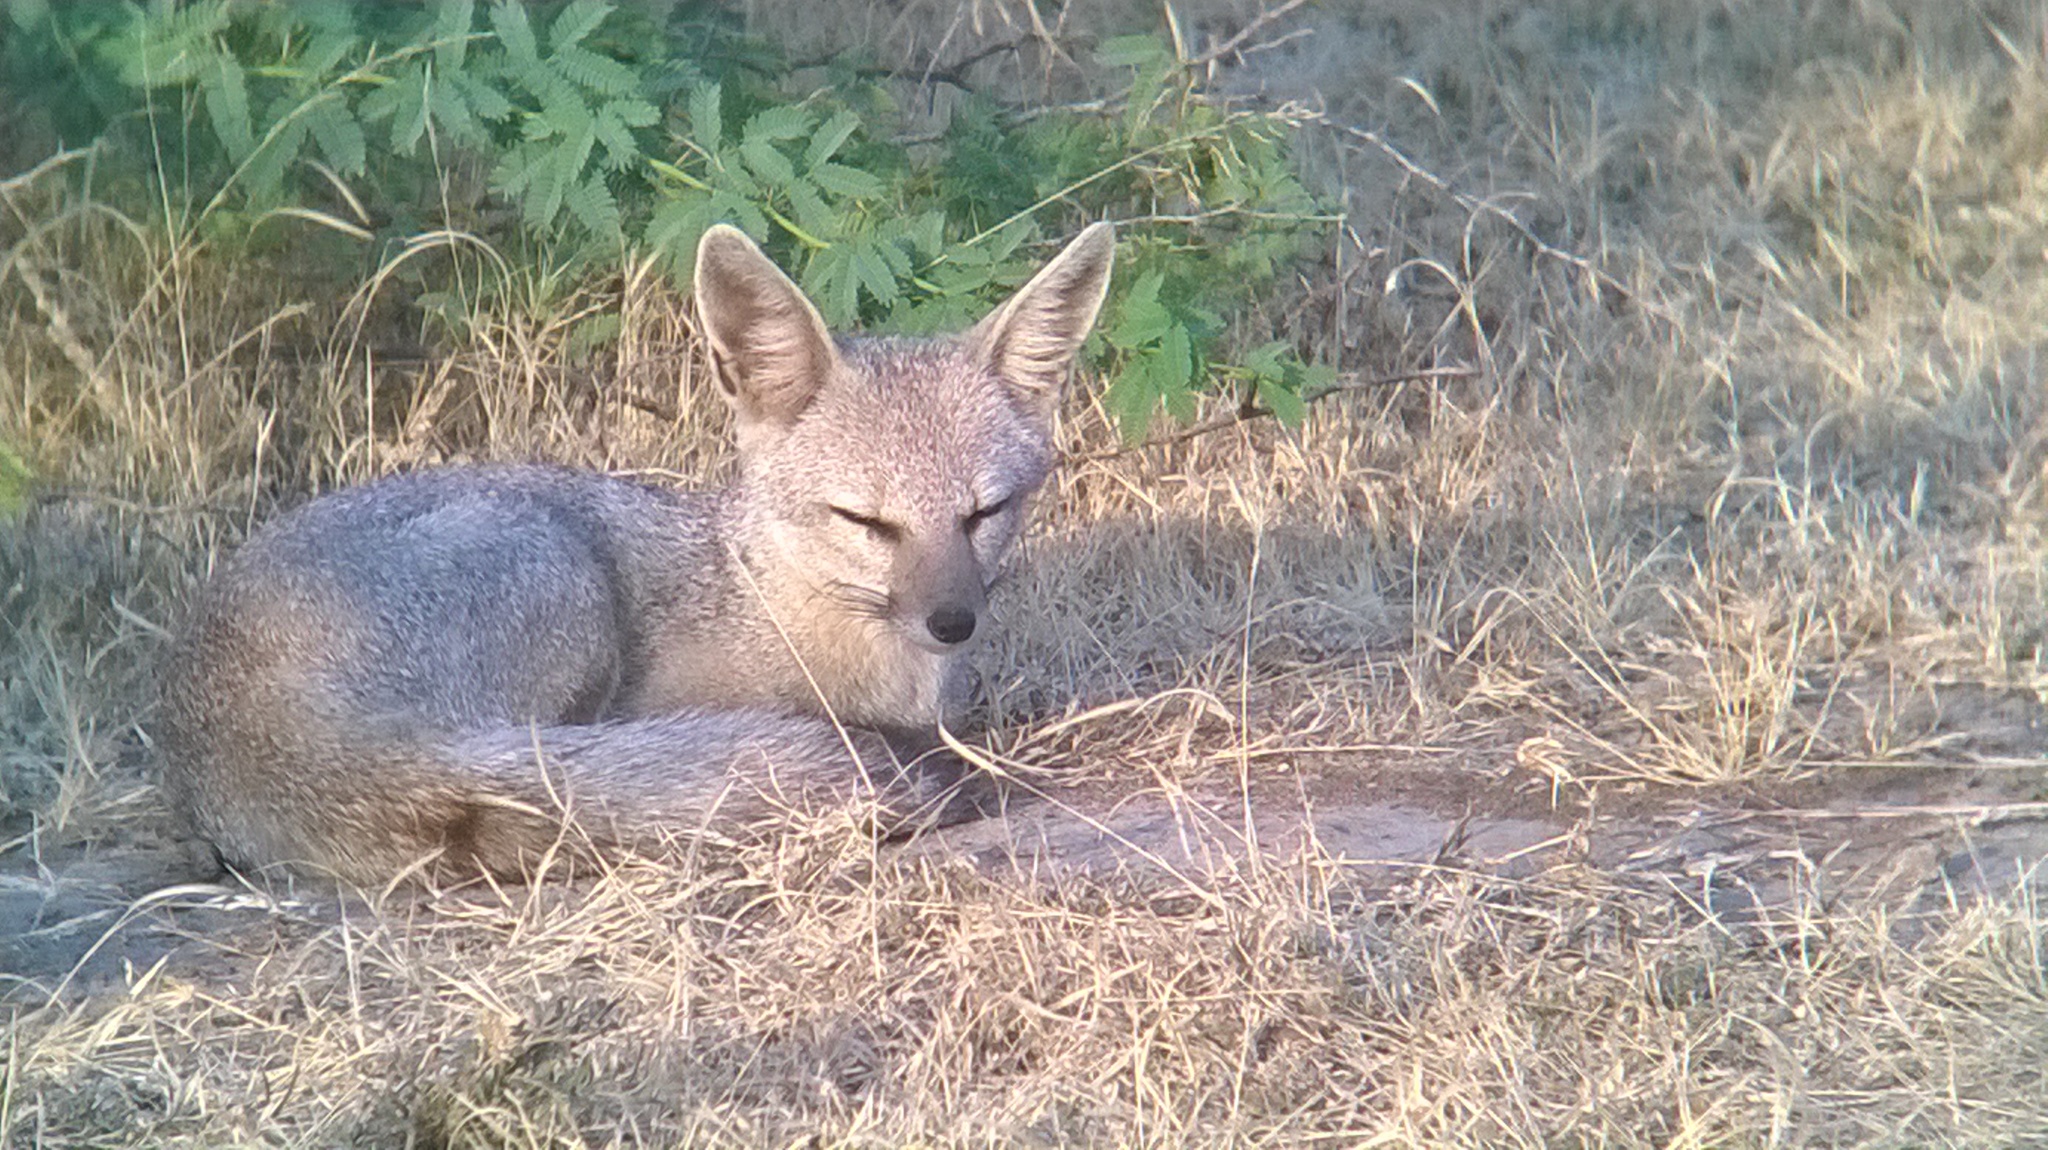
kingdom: Animalia
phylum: Chordata
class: Mammalia
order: Carnivora
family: Canidae
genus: Vulpes
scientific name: Vulpes bengalensis
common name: Bengal fox
